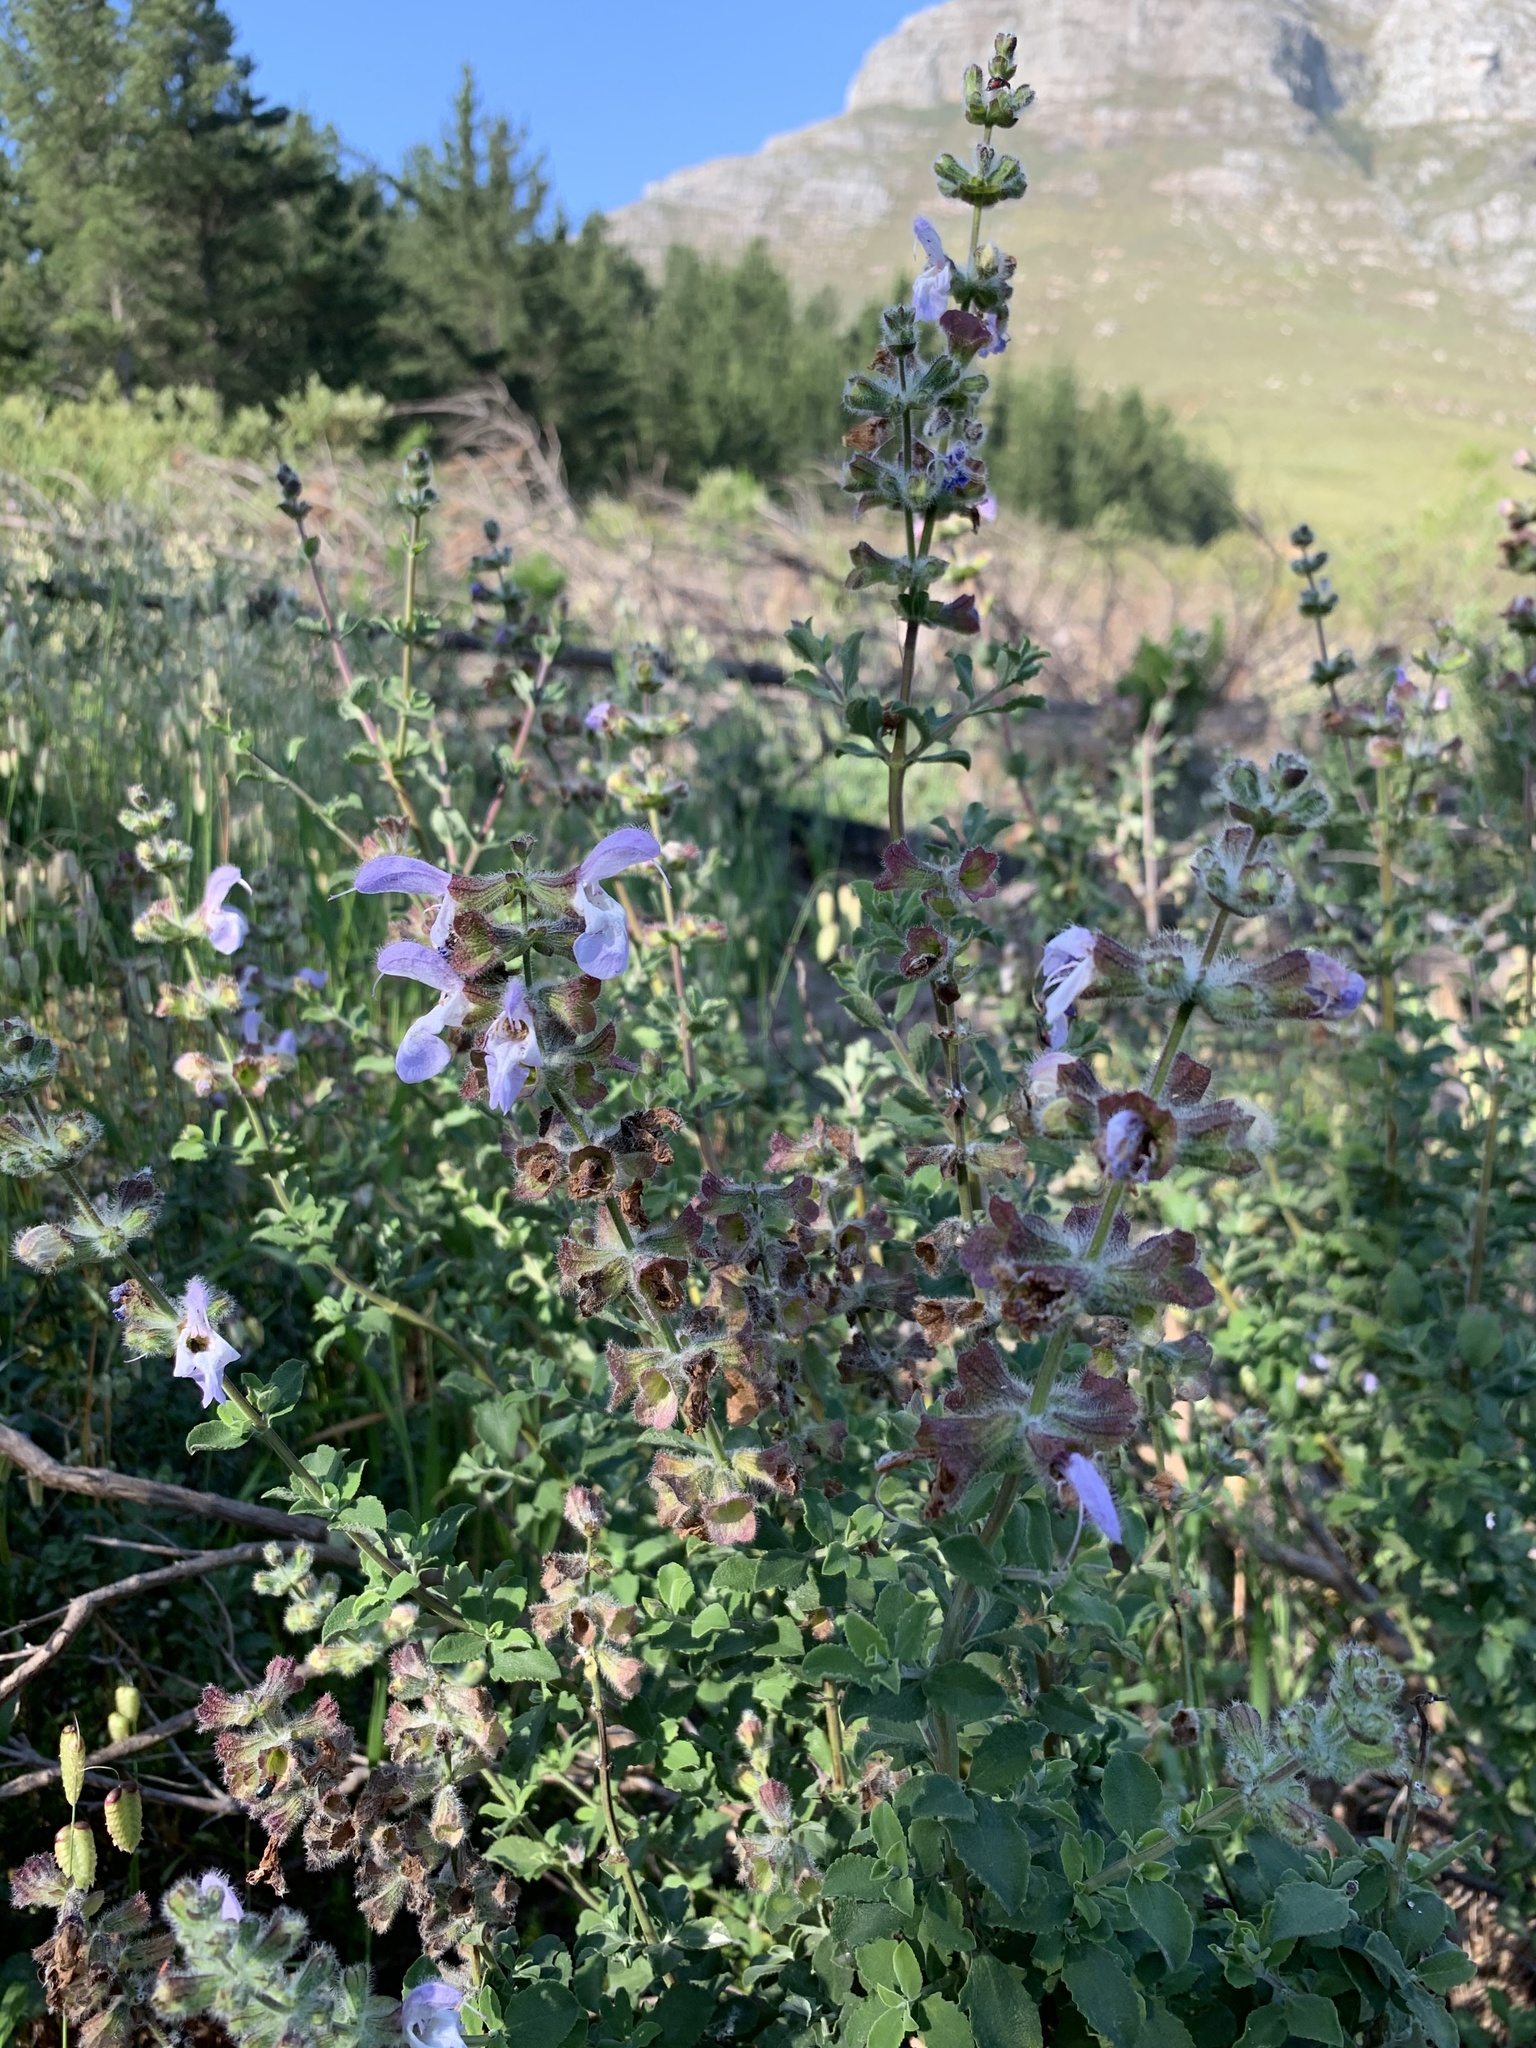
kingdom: Plantae
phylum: Tracheophyta
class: Magnoliopsida
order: Lamiales
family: Lamiaceae
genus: Salvia
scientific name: Salvia africana
